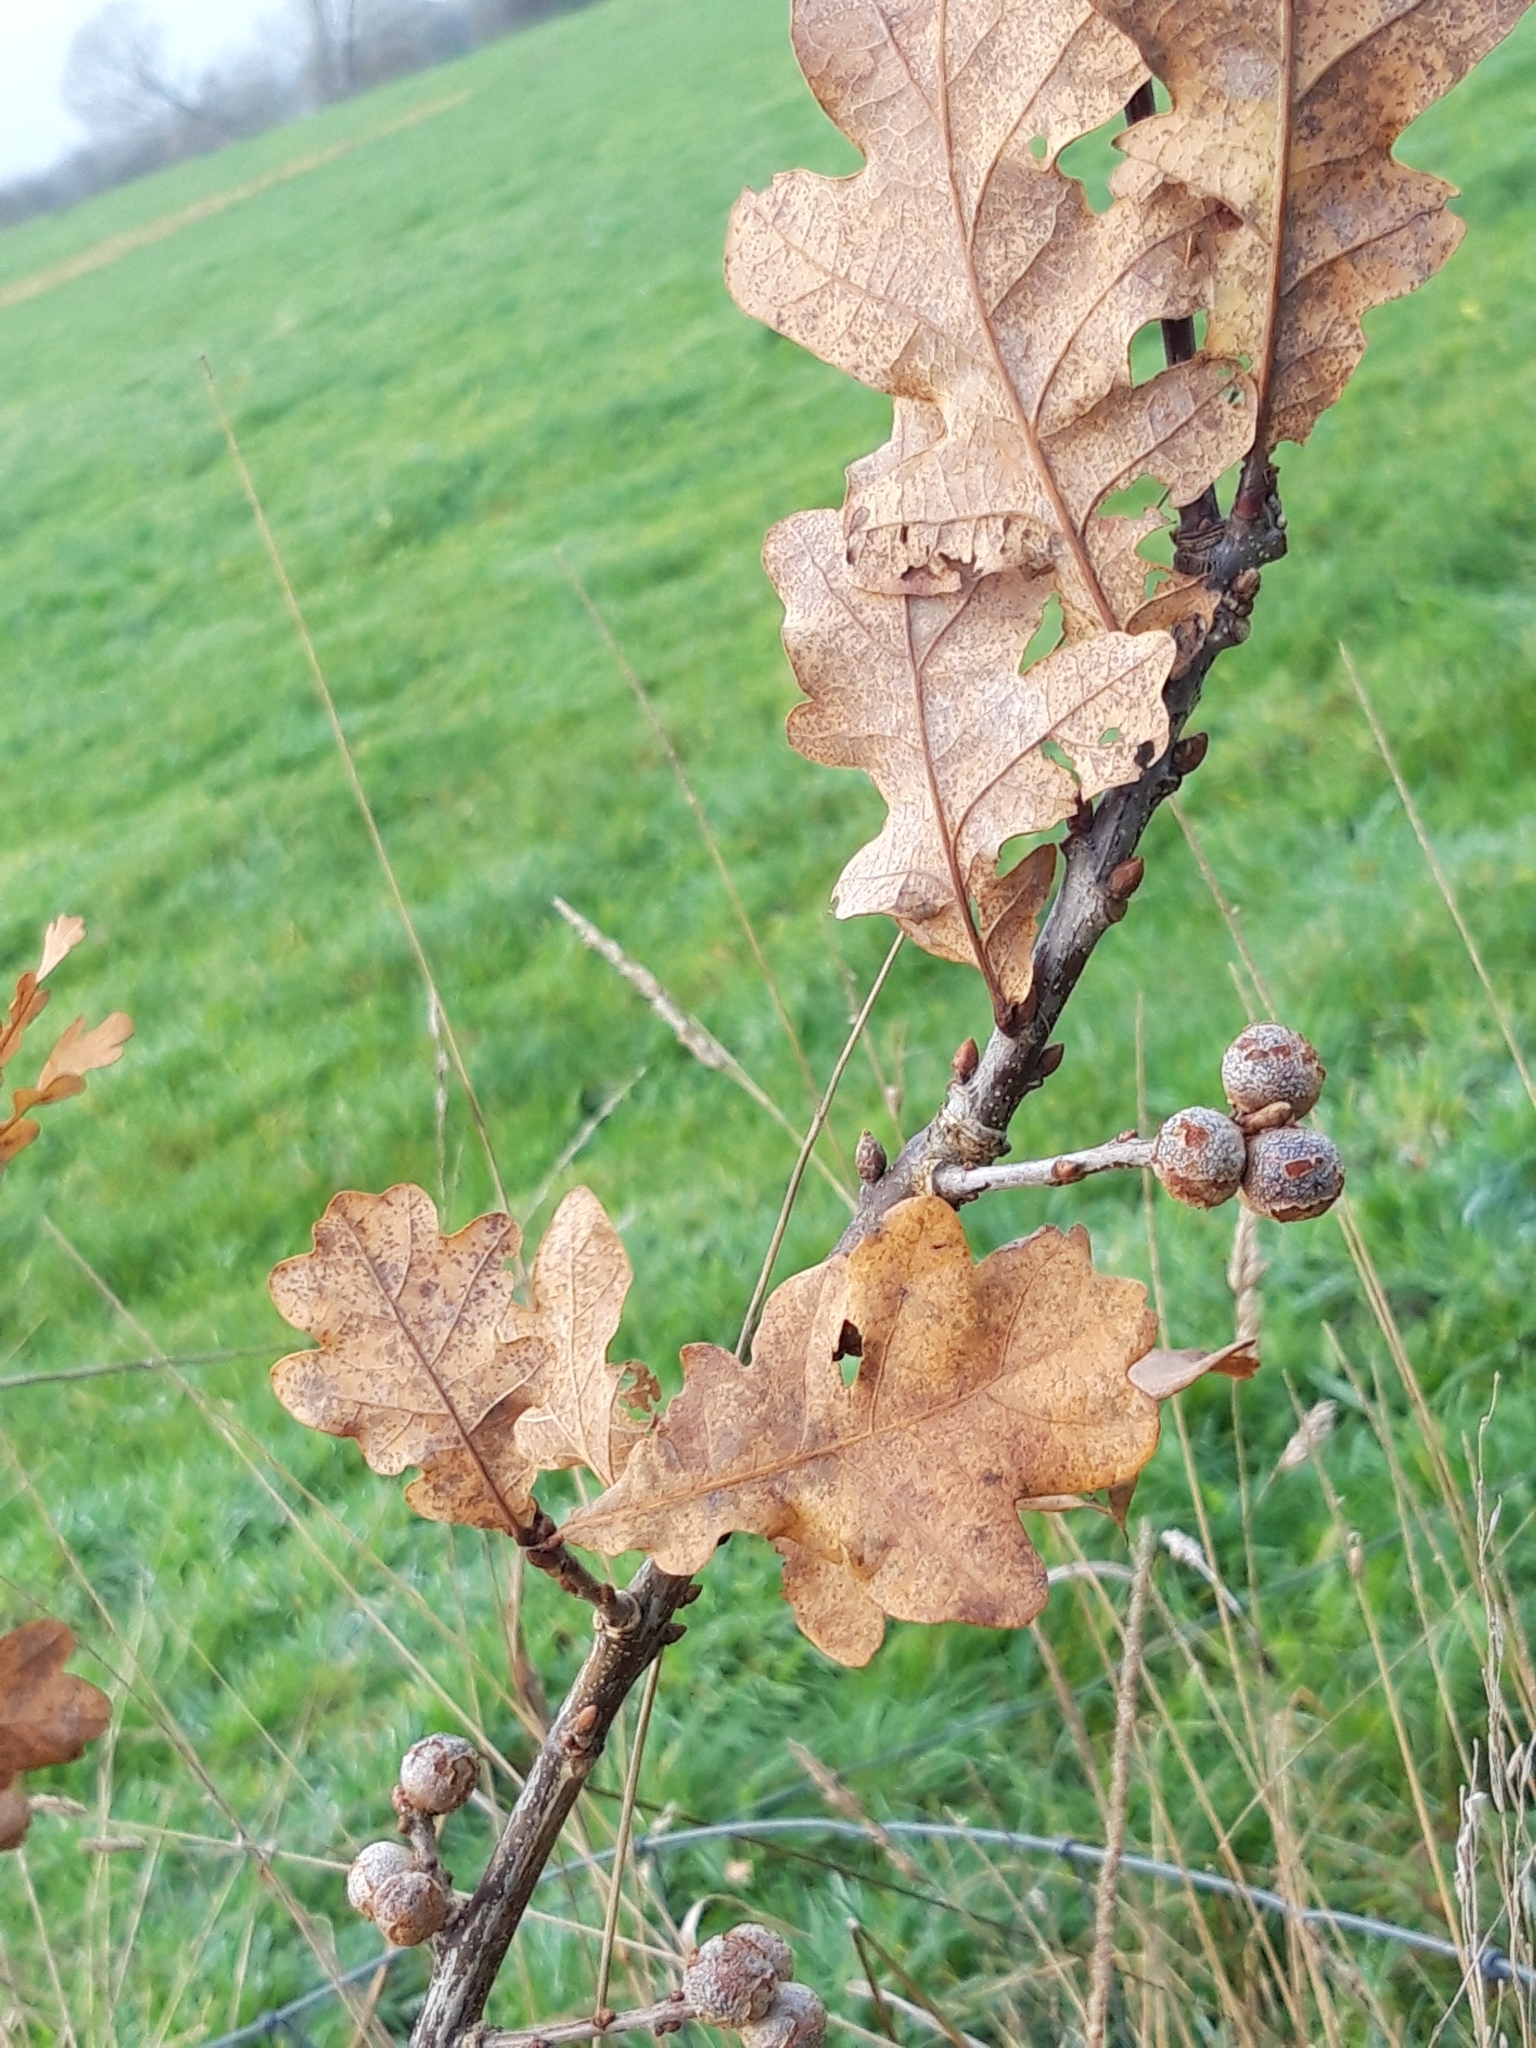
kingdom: Animalia
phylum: Arthropoda
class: Insecta
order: Hymenoptera
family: Cynipidae
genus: Andricus
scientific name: Andricus lignicolus
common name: Cola-nut gall
